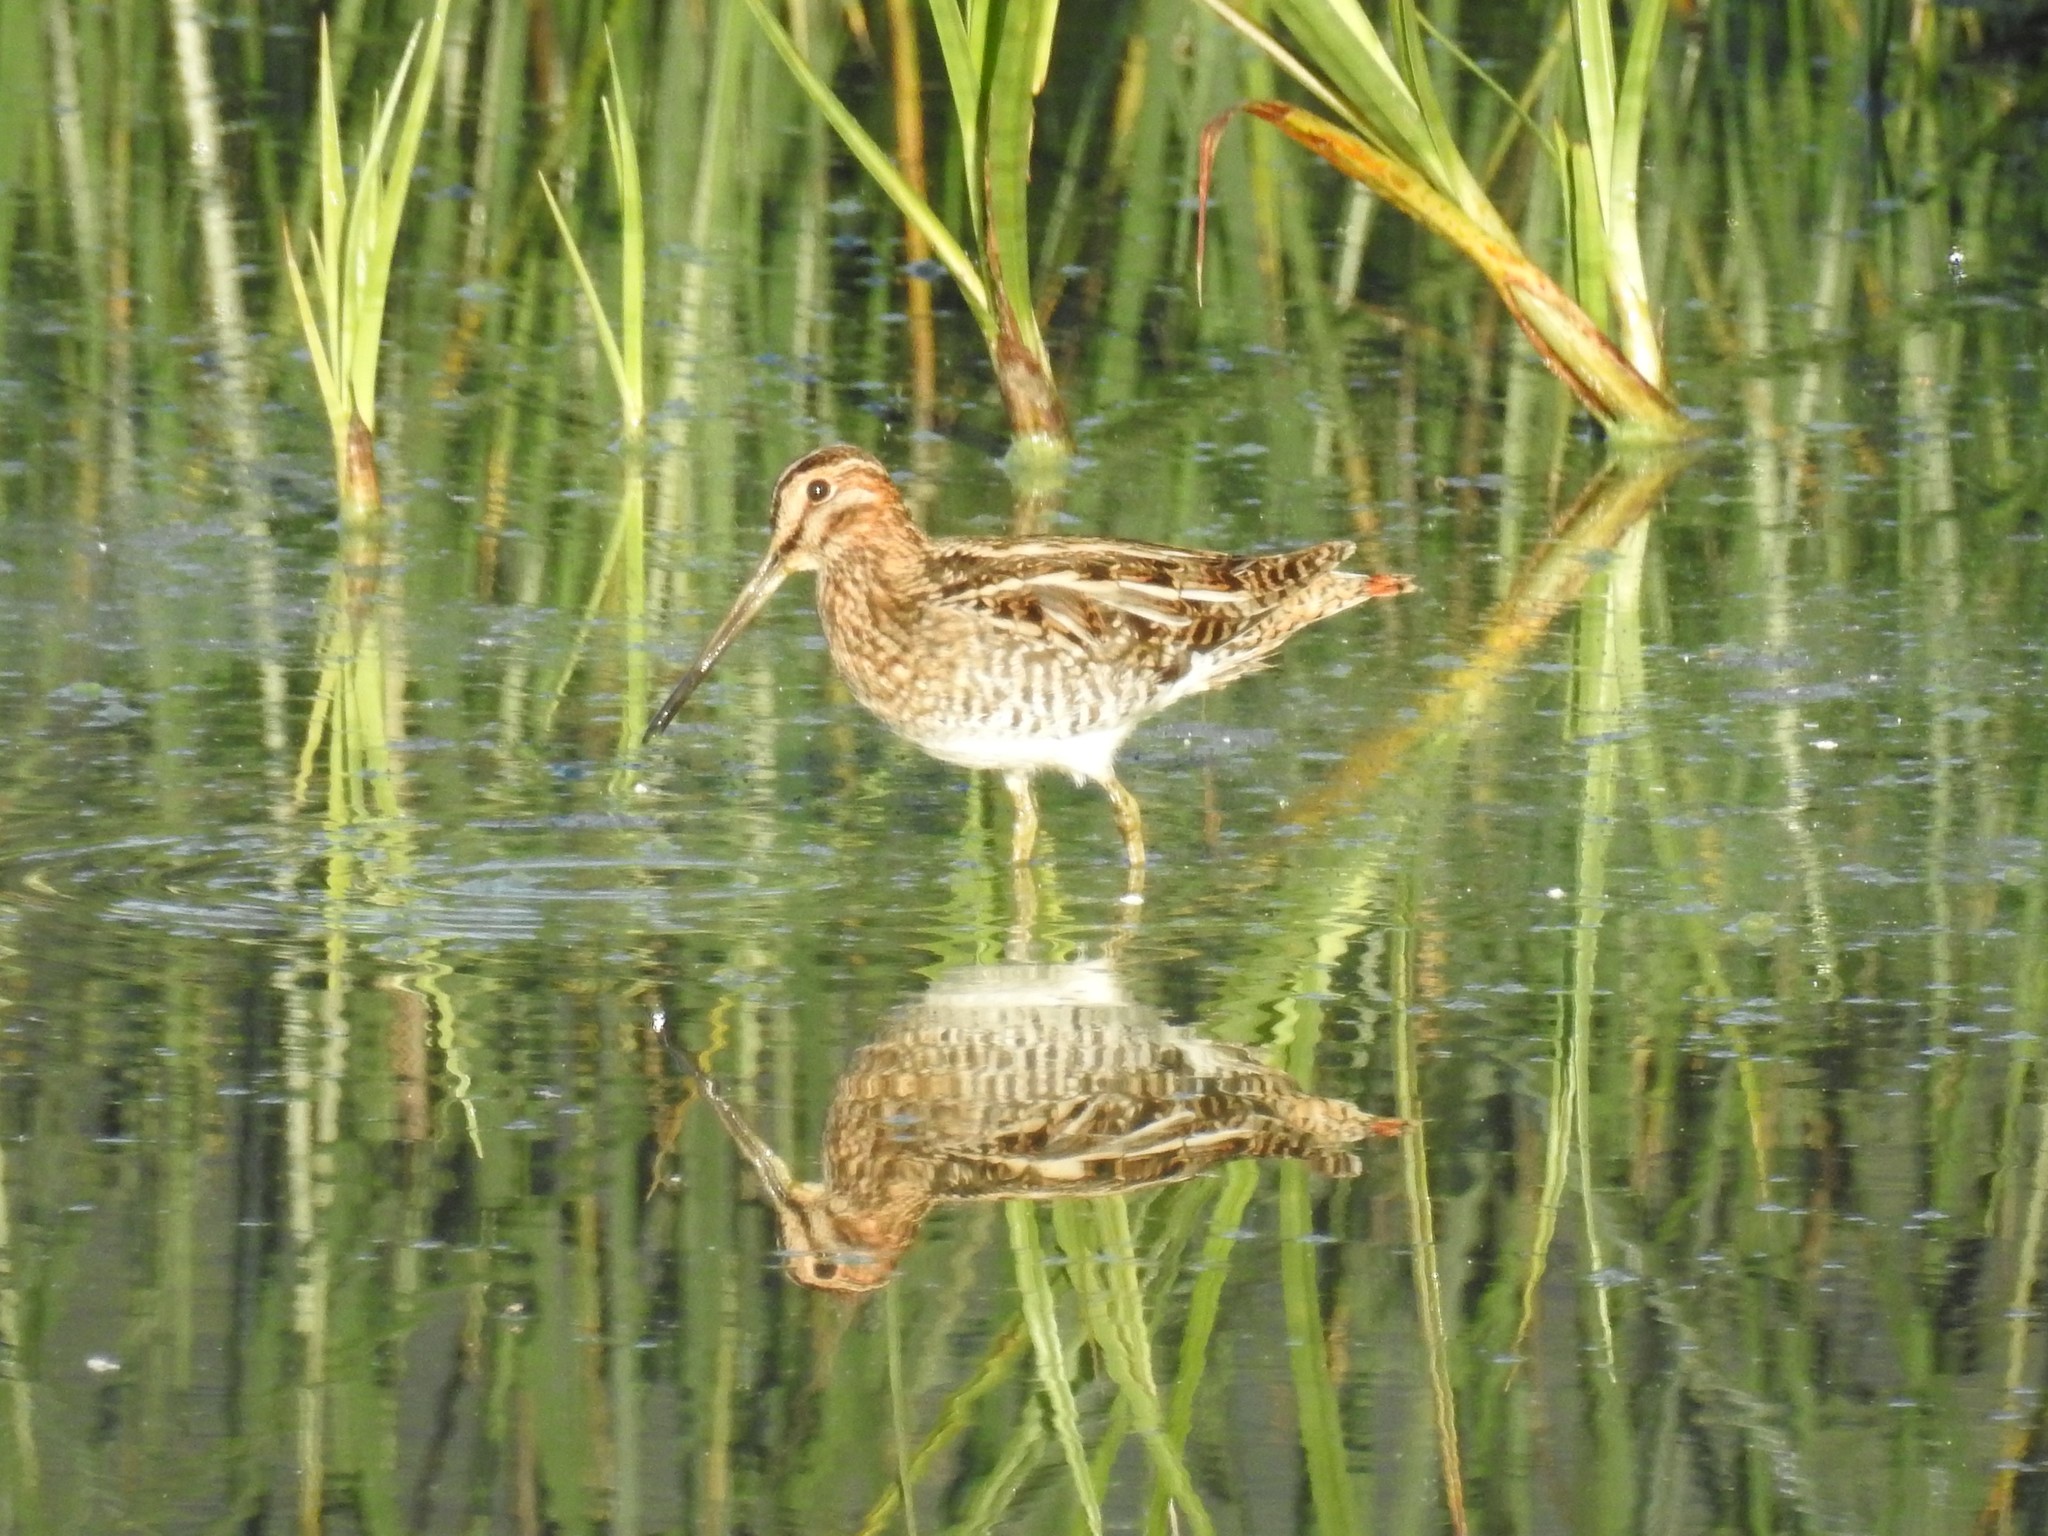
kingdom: Animalia
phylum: Chordata
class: Aves
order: Charadriiformes
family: Scolopacidae
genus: Gallinago
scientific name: Gallinago delicata
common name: Wilson's snipe
